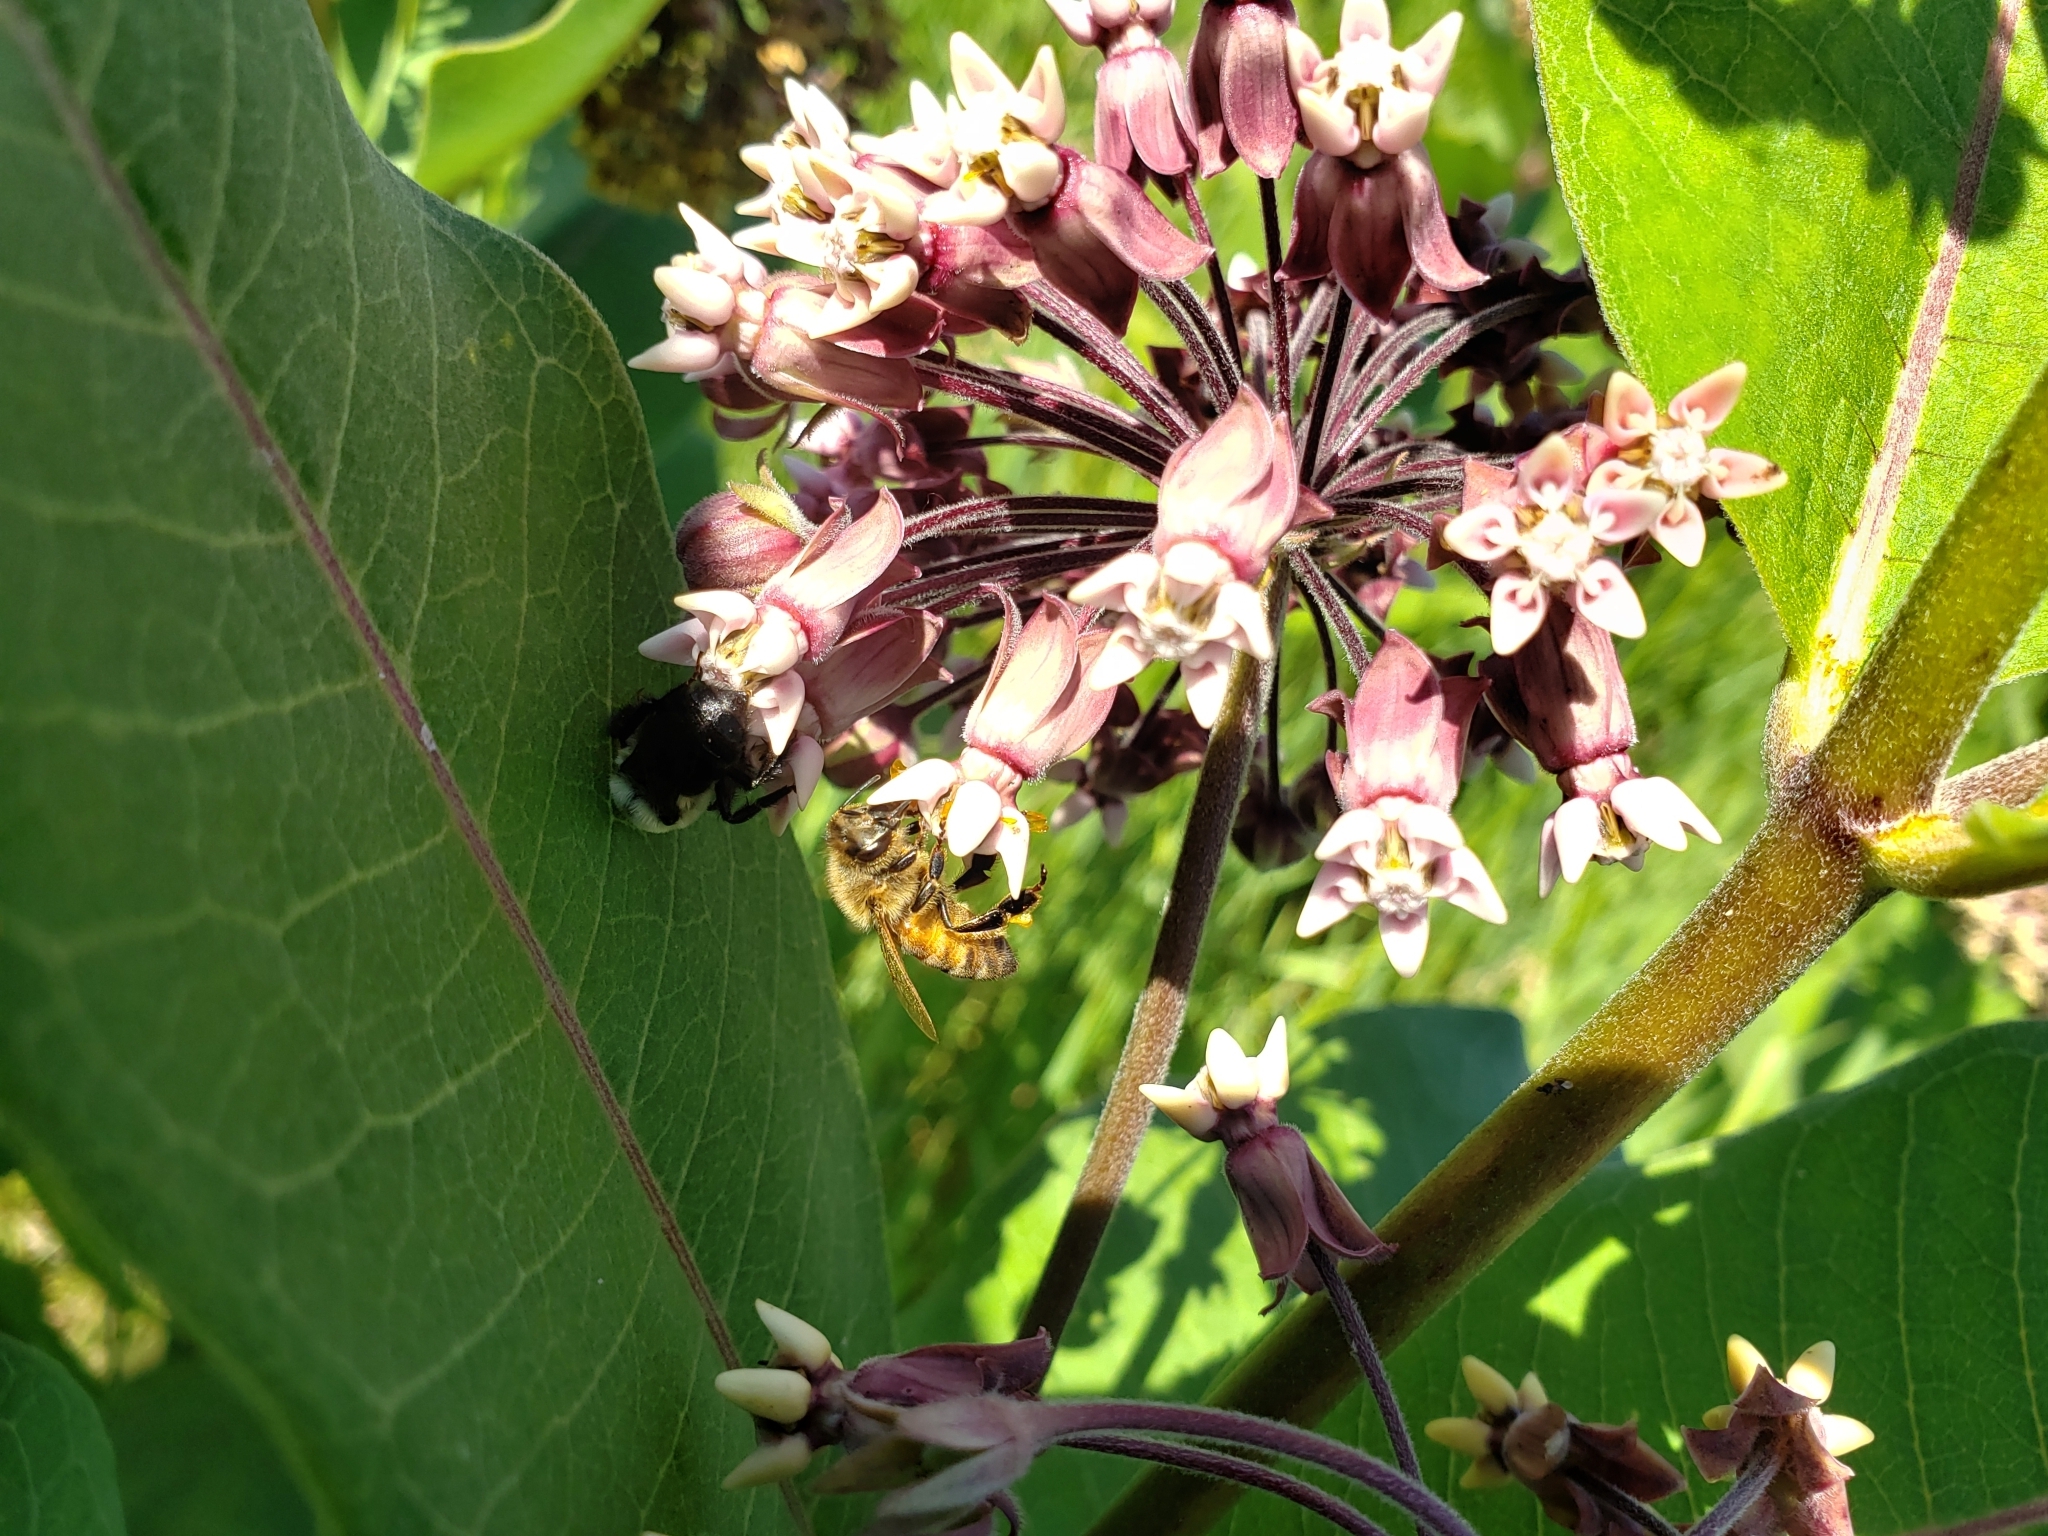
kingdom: Animalia
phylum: Arthropoda
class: Insecta
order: Hymenoptera
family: Apidae
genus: Apis
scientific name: Apis mellifera
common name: Honey bee
